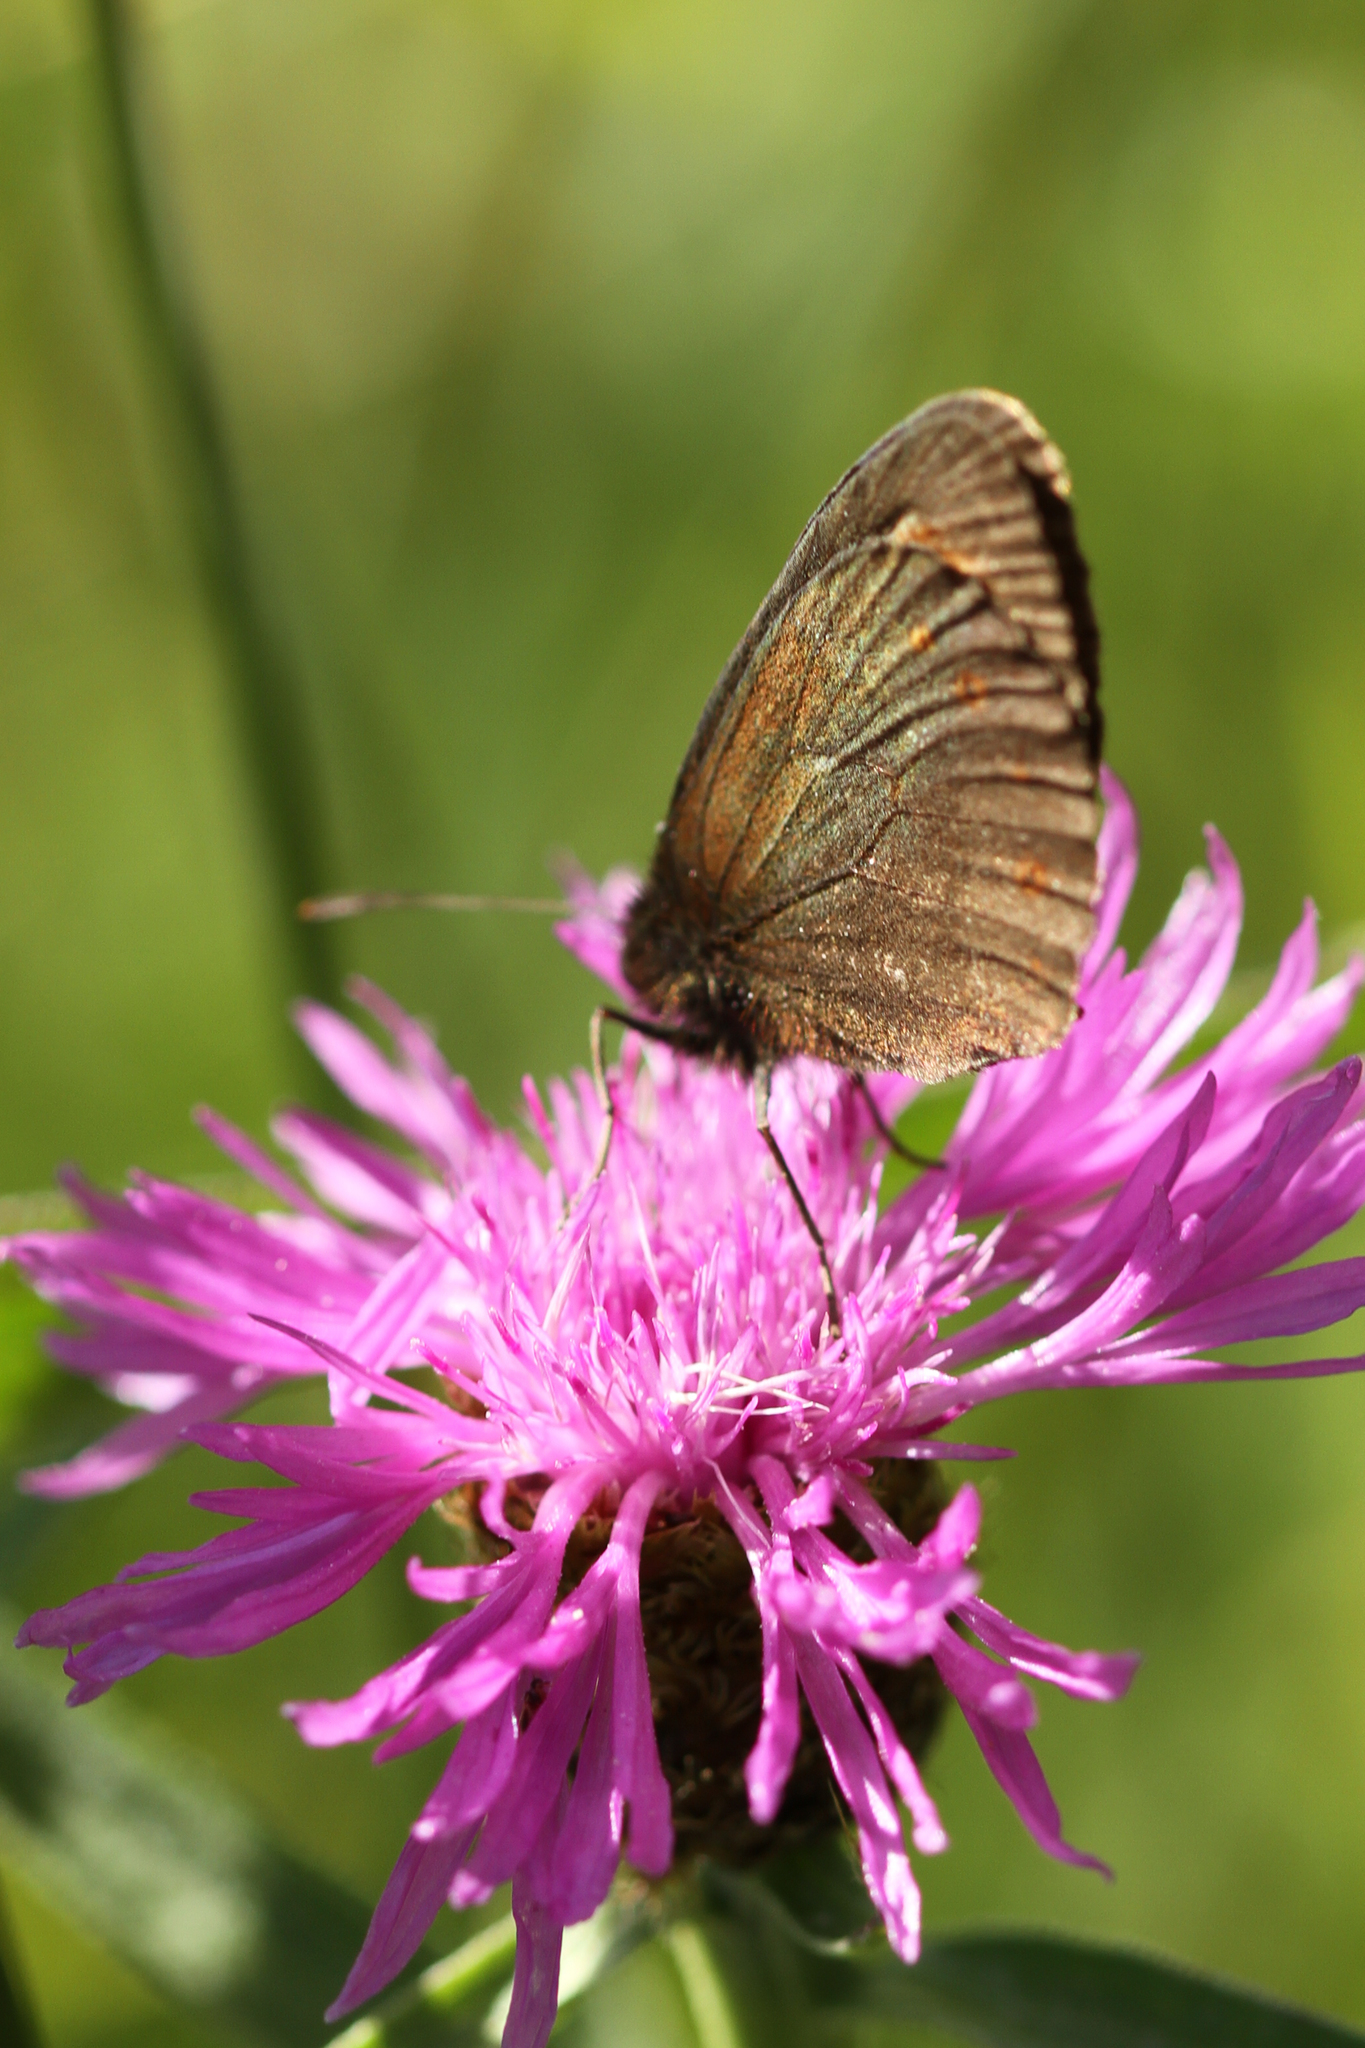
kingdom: Animalia
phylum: Arthropoda
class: Insecta
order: Lepidoptera
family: Nymphalidae
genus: Erebia
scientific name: Erebia epiphron
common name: Mountain ringlet
